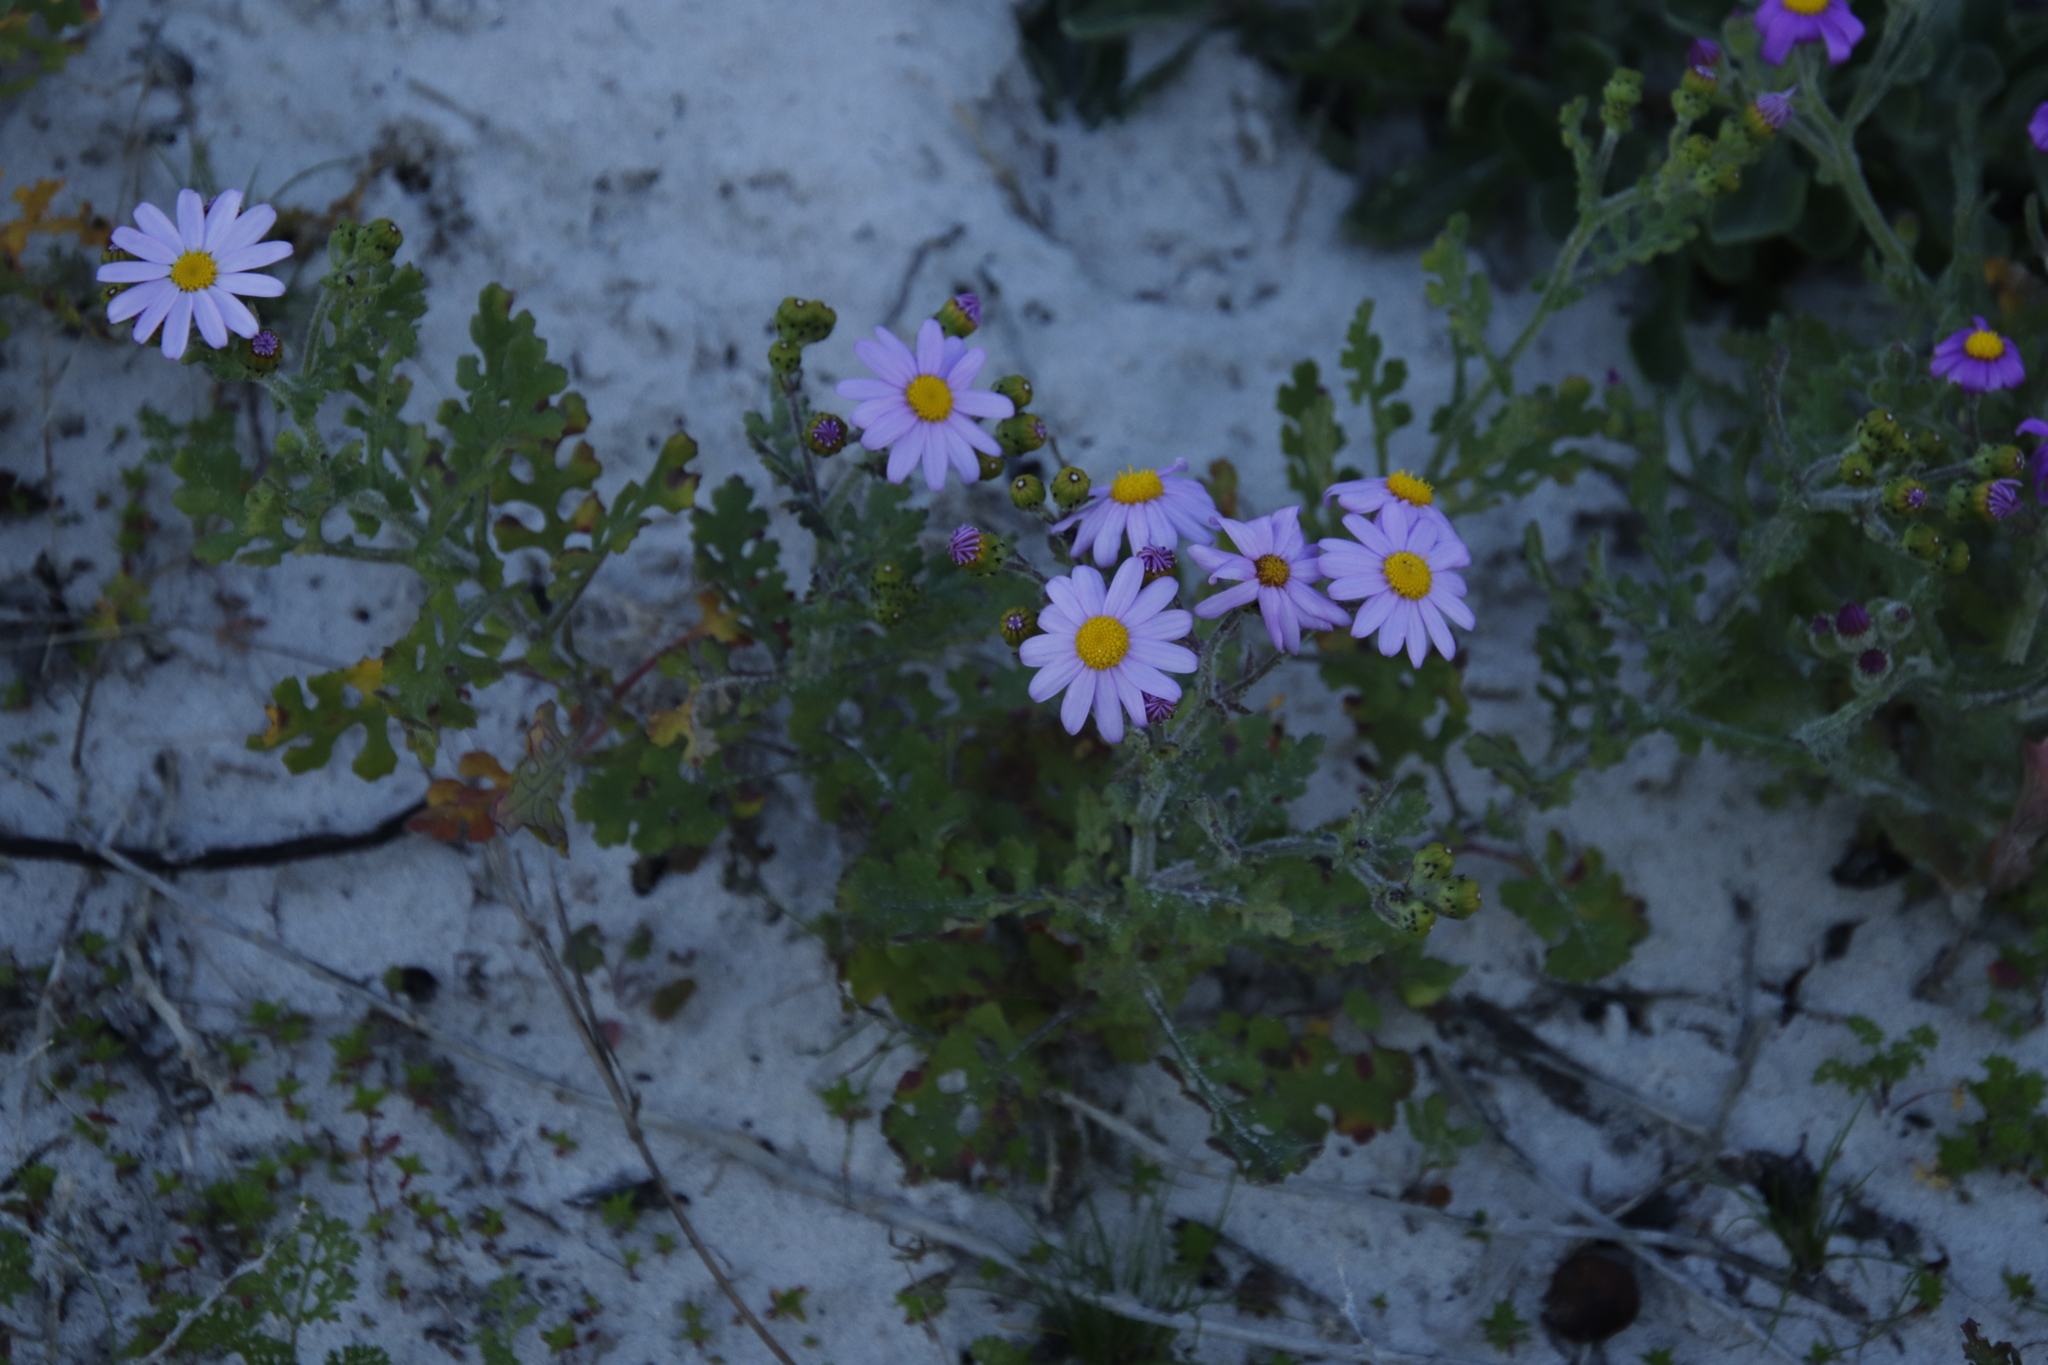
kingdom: Plantae
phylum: Tracheophyta
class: Magnoliopsida
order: Asterales
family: Asteraceae
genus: Senecio
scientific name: Senecio elegans
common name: Purple groundsel
